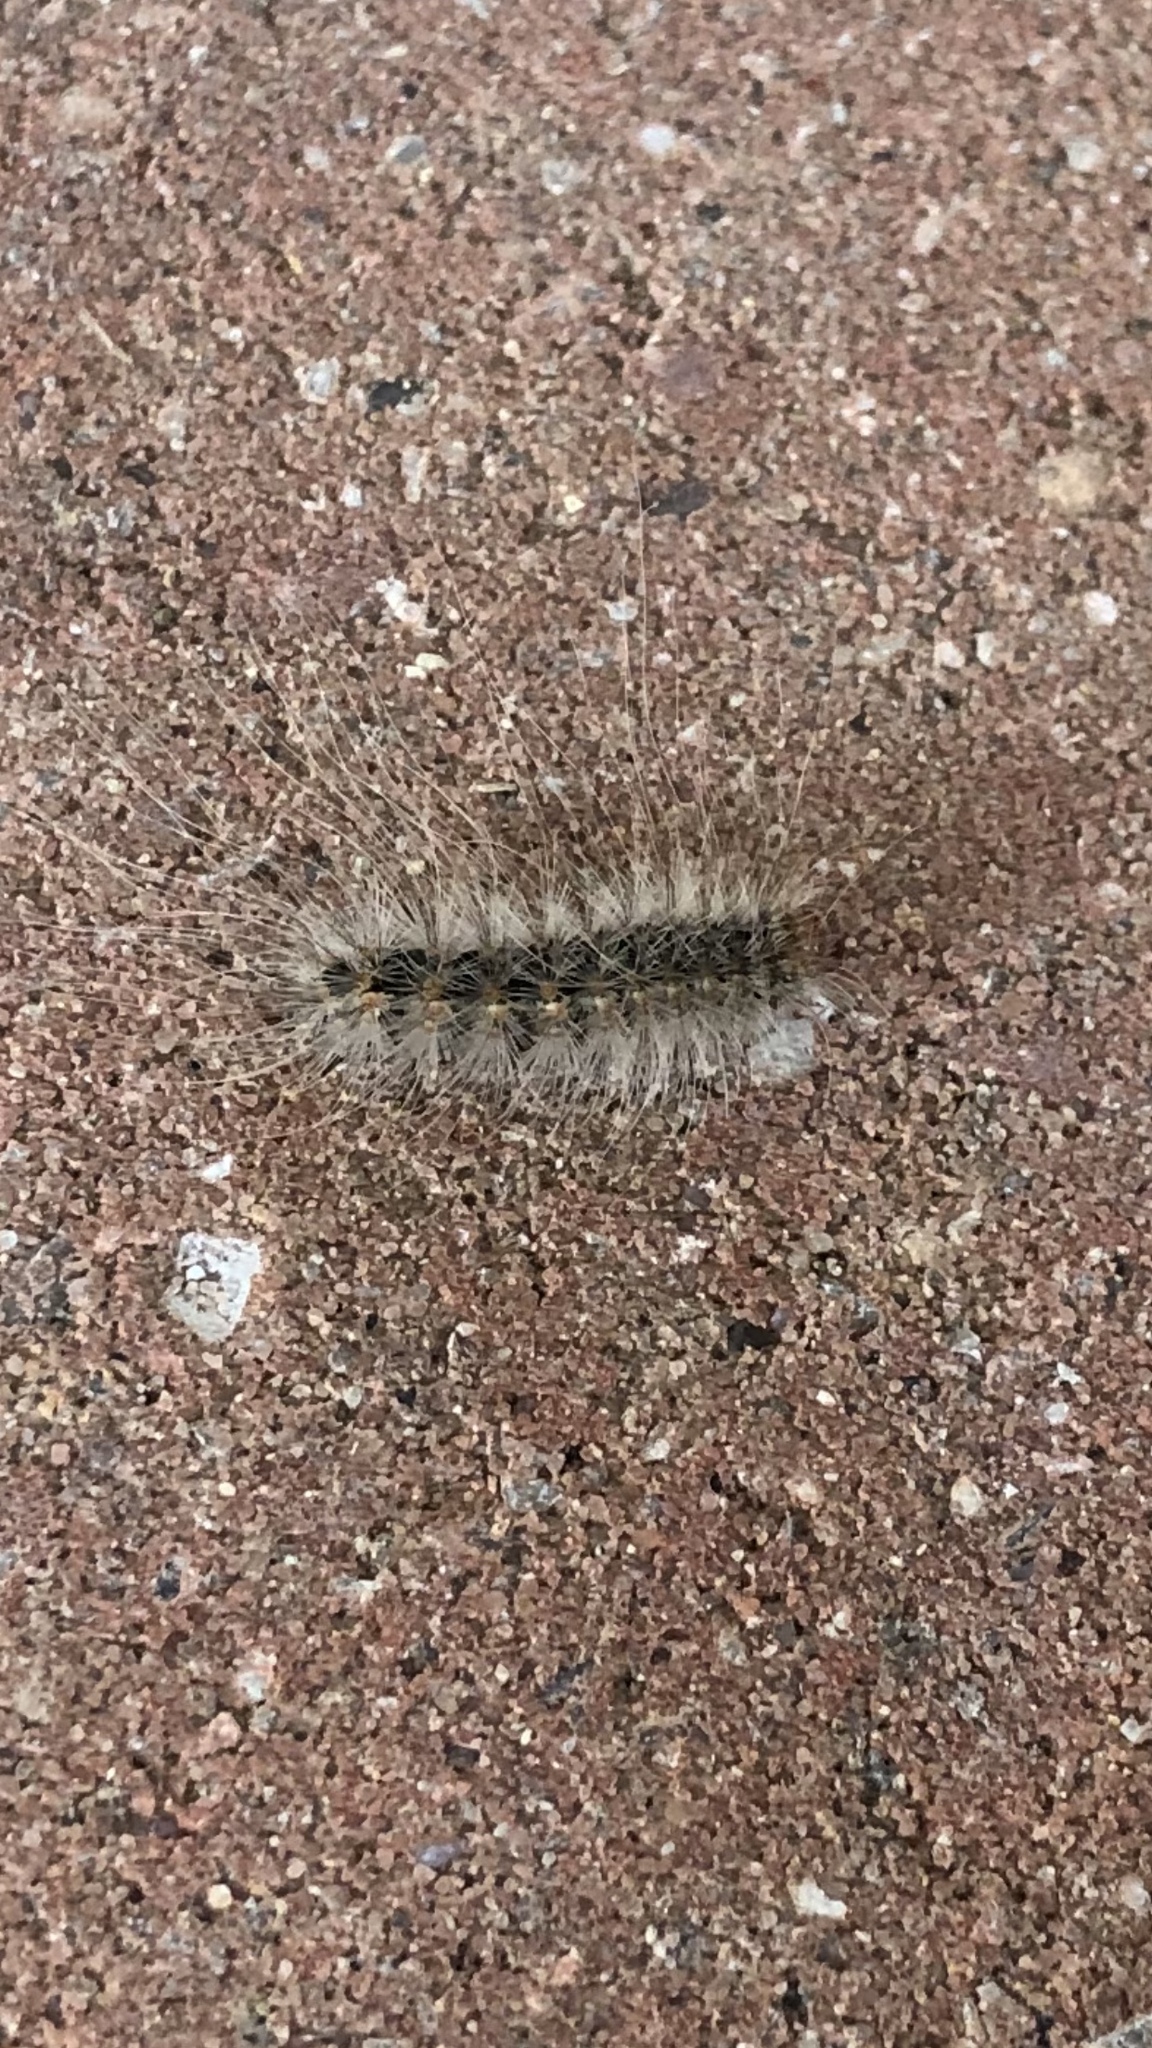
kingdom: Animalia
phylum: Arthropoda
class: Insecta
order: Lepidoptera
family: Erebidae
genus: Hyphantria
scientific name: Hyphantria cunea
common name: American white moth
